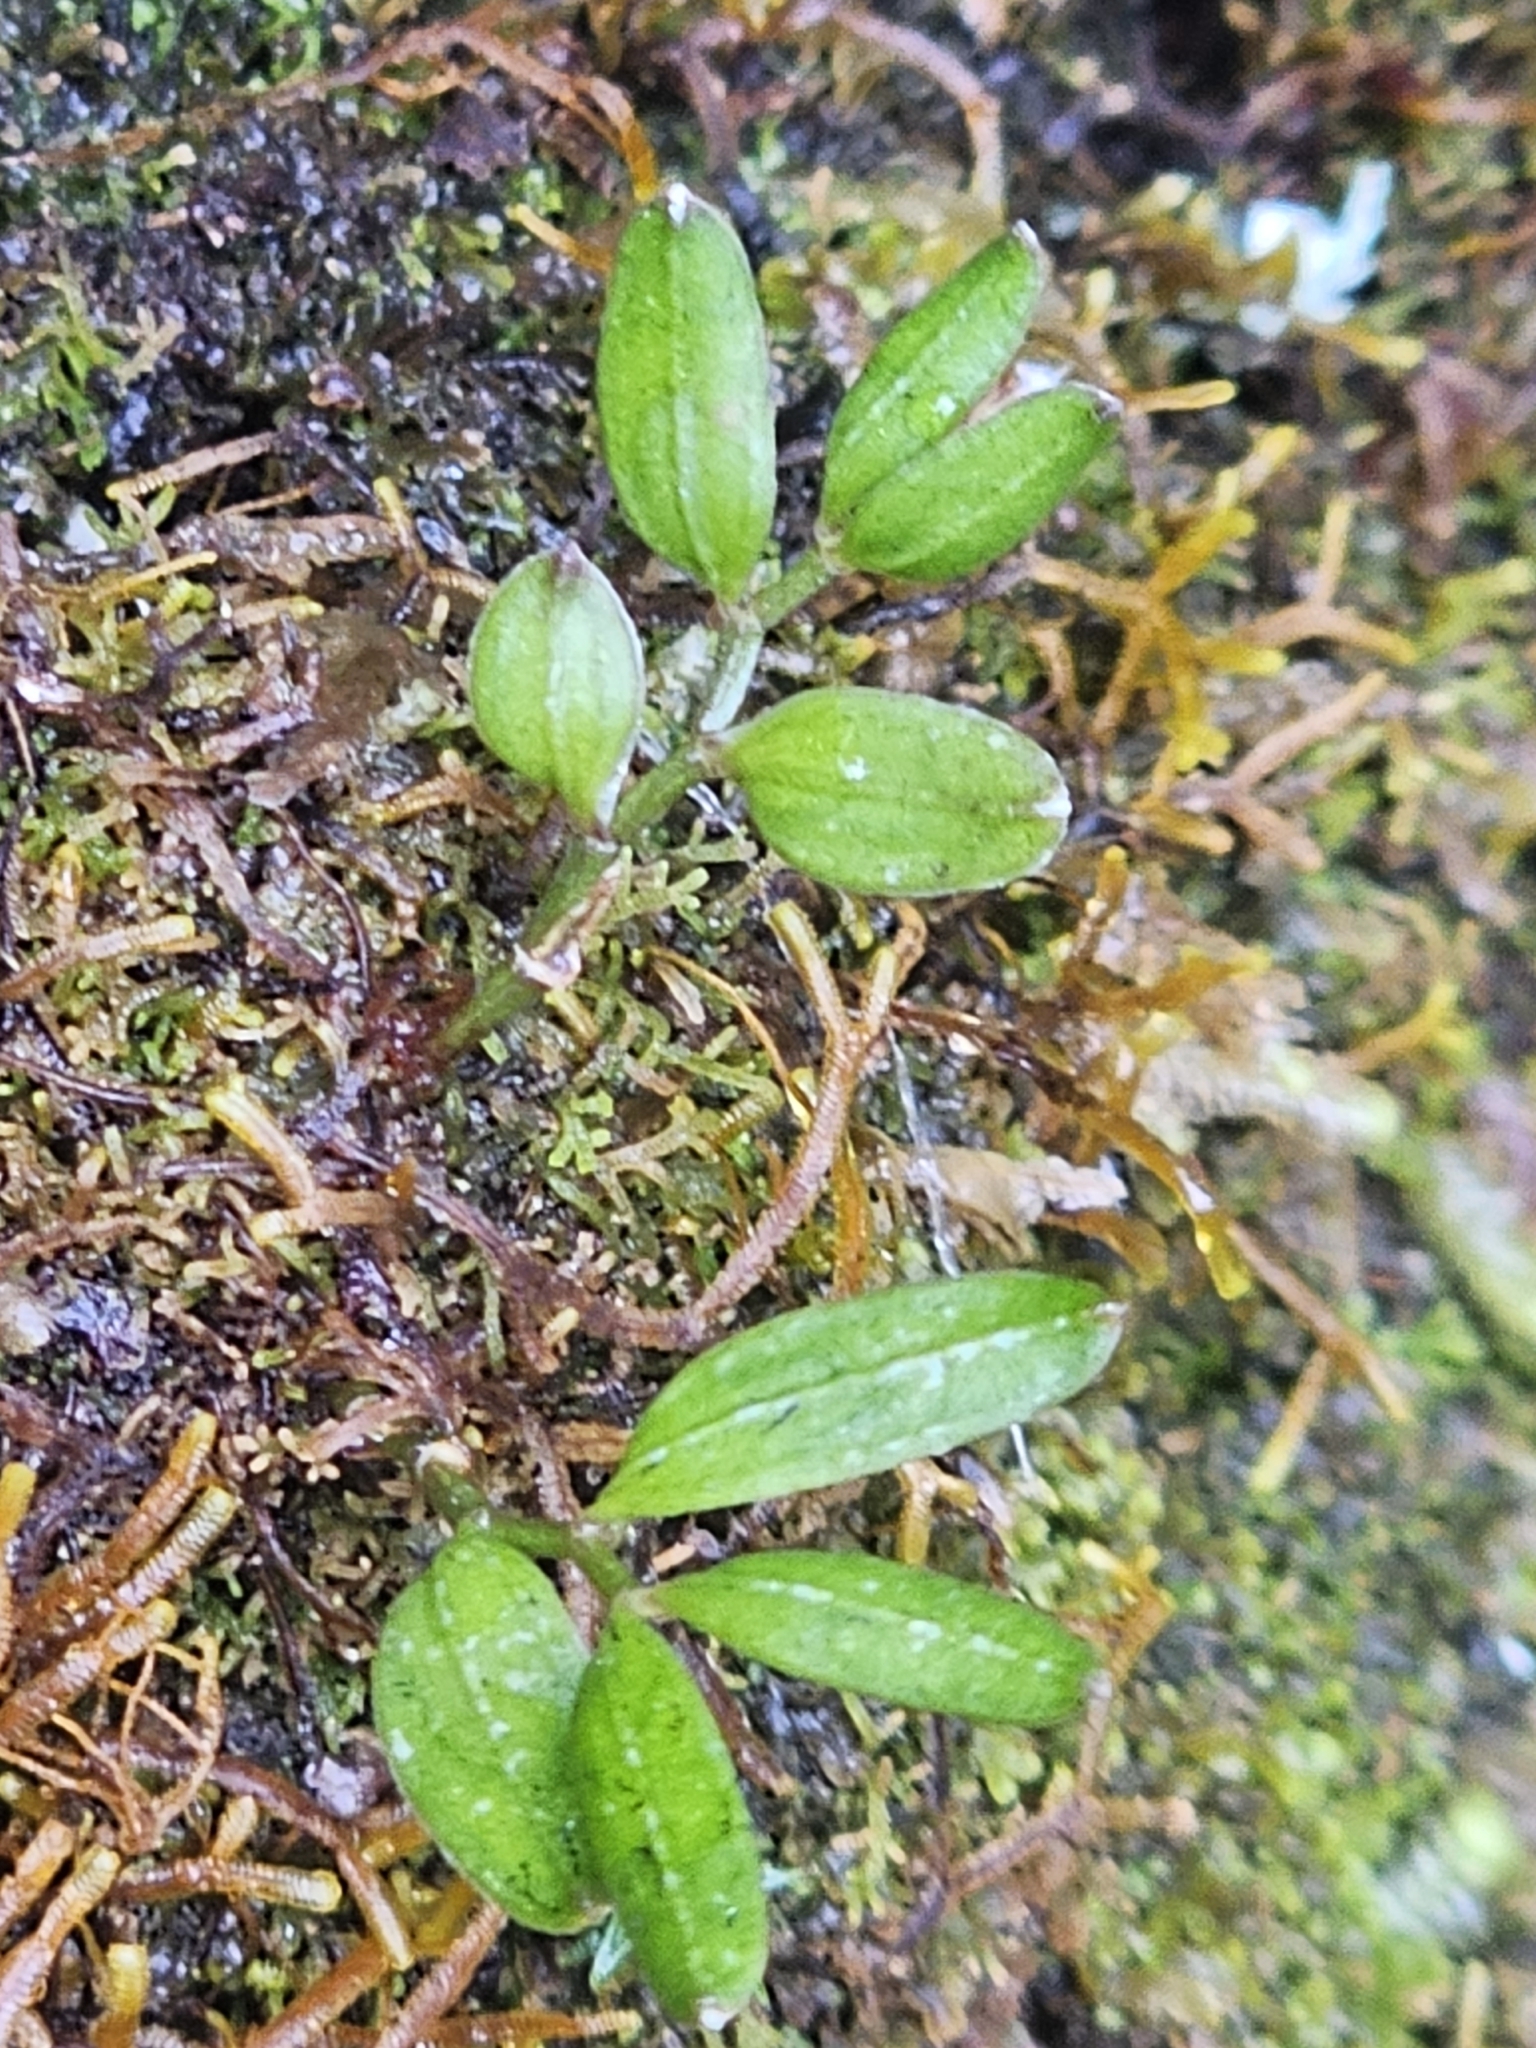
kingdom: Plantae
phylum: Tracheophyta
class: Liliopsida
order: Liliales
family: Alstroemeriaceae
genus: Luzuriaga
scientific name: Luzuriaga parviflora
